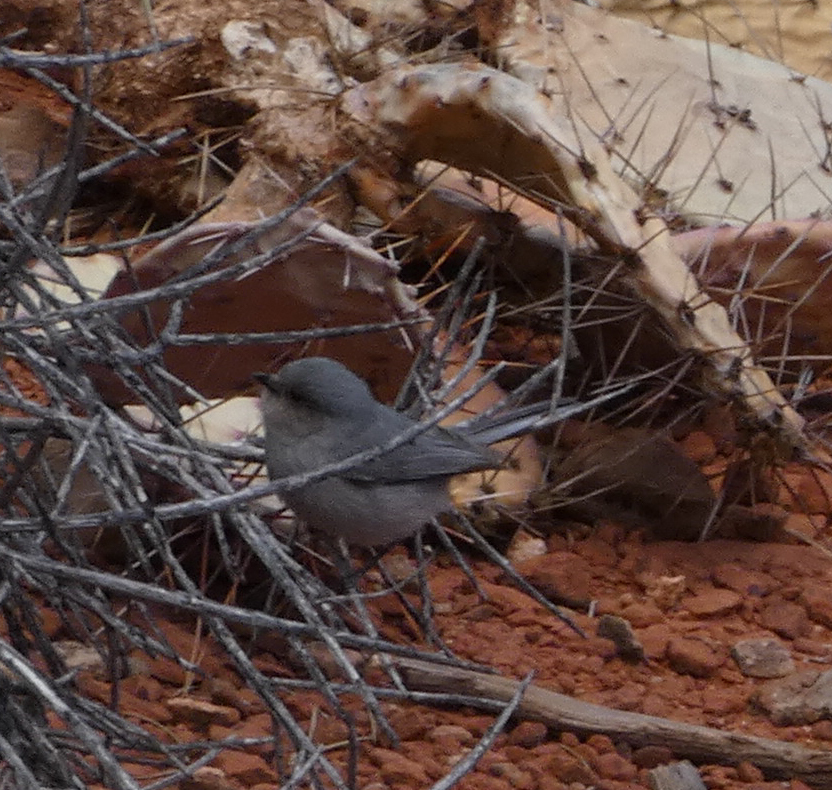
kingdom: Animalia
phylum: Chordata
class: Aves
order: Passeriformes
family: Aegithalidae
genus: Psaltriparus
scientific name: Psaltriparus minimus
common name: American bushtit
